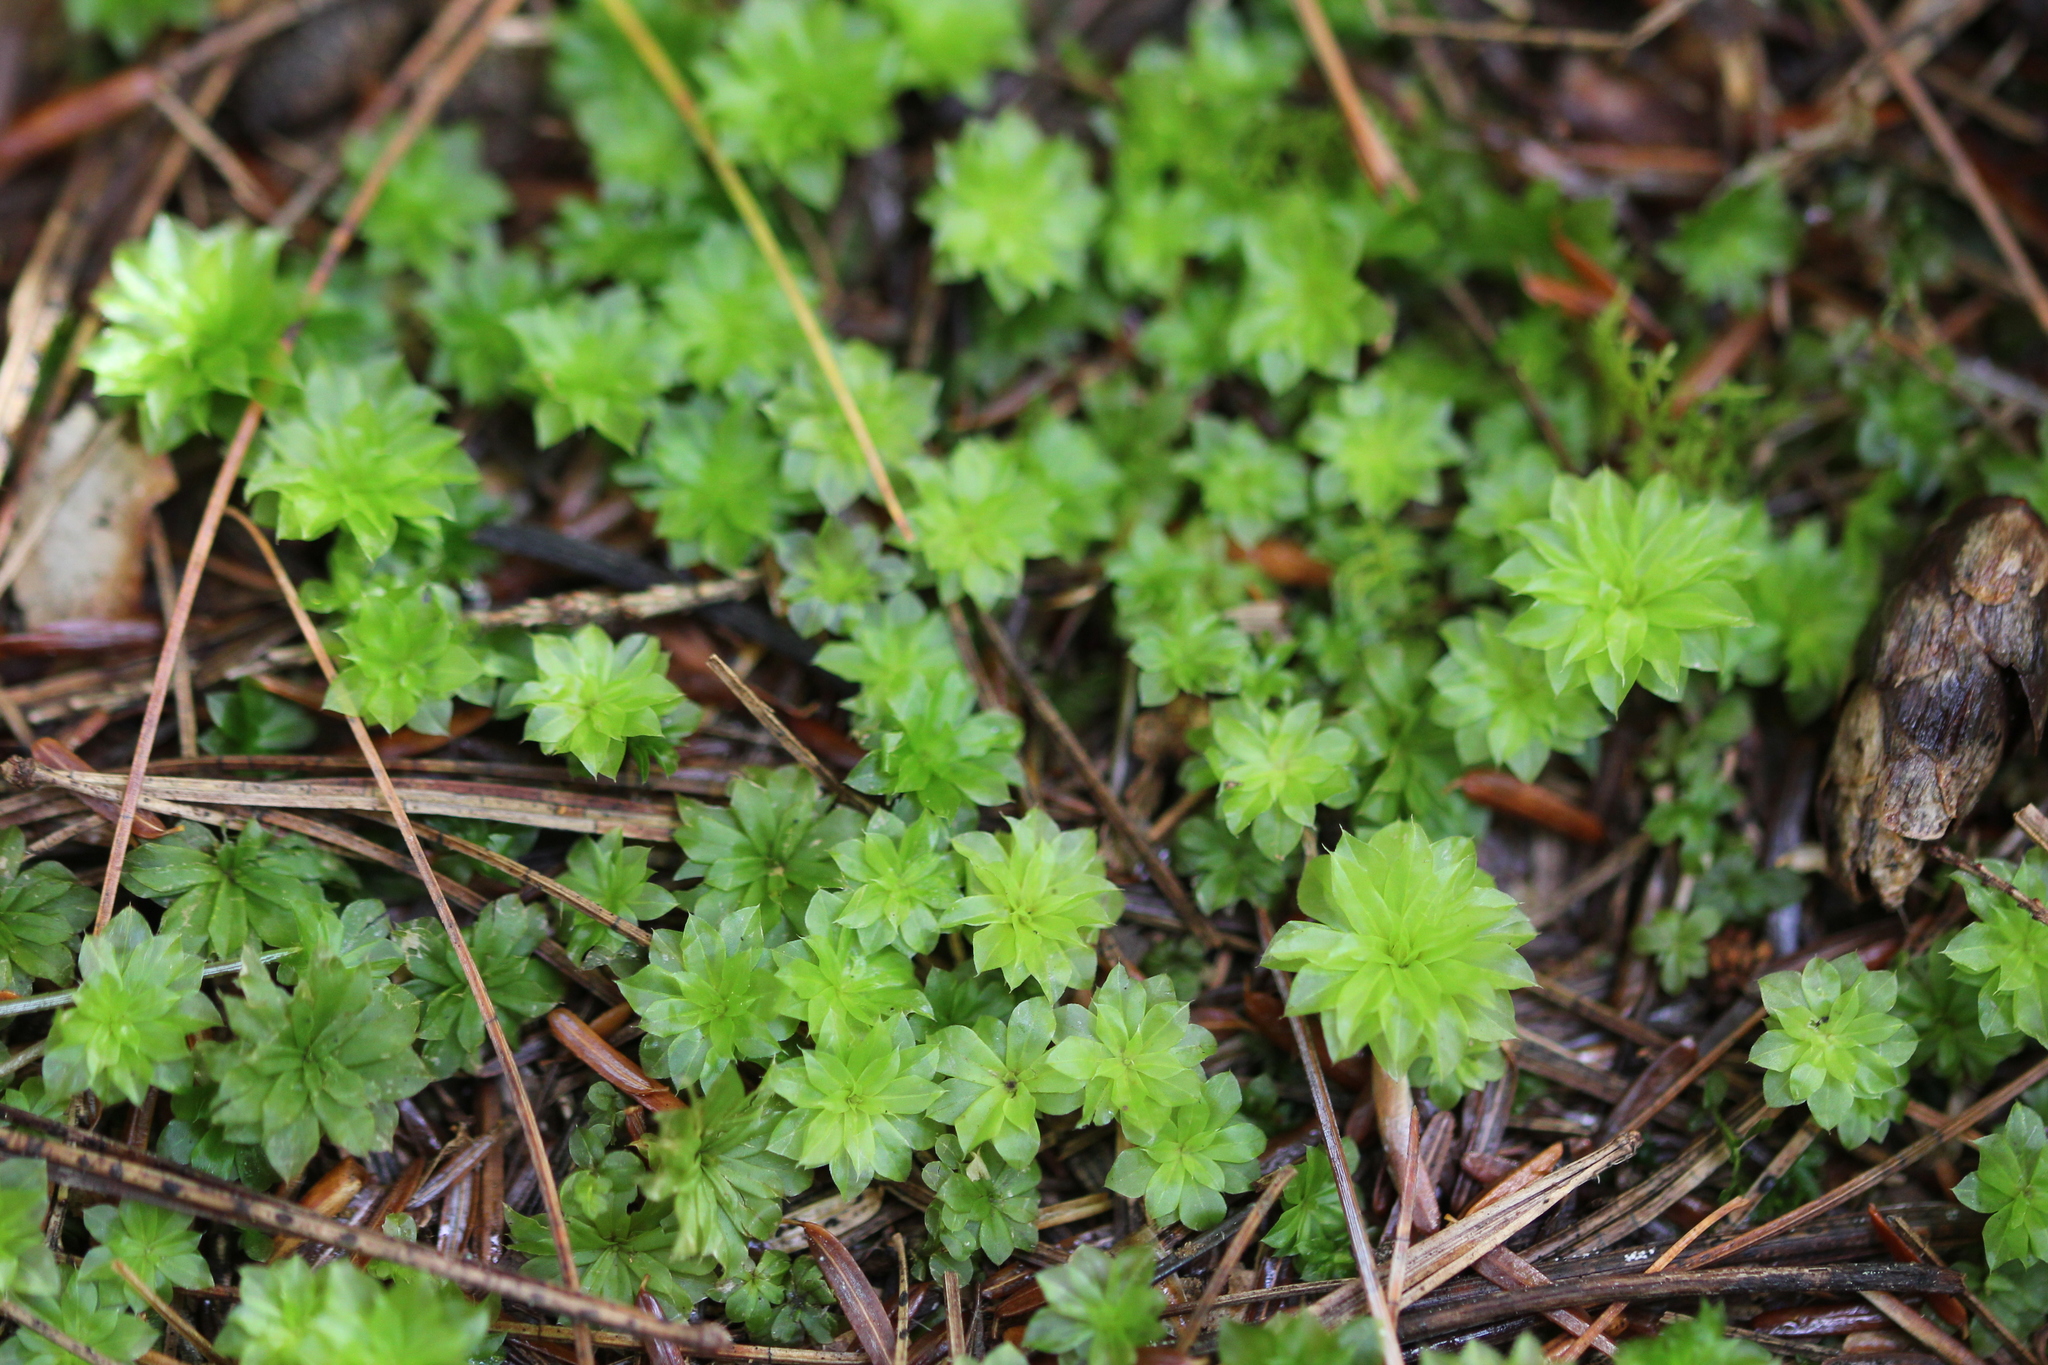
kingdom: Plantae
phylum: Bryophyta
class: Bryopsida
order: Bryales
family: Bryaceae
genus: Rhodobryum
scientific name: Rhodobryum ontariense
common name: Ontario rhodobryum moss
